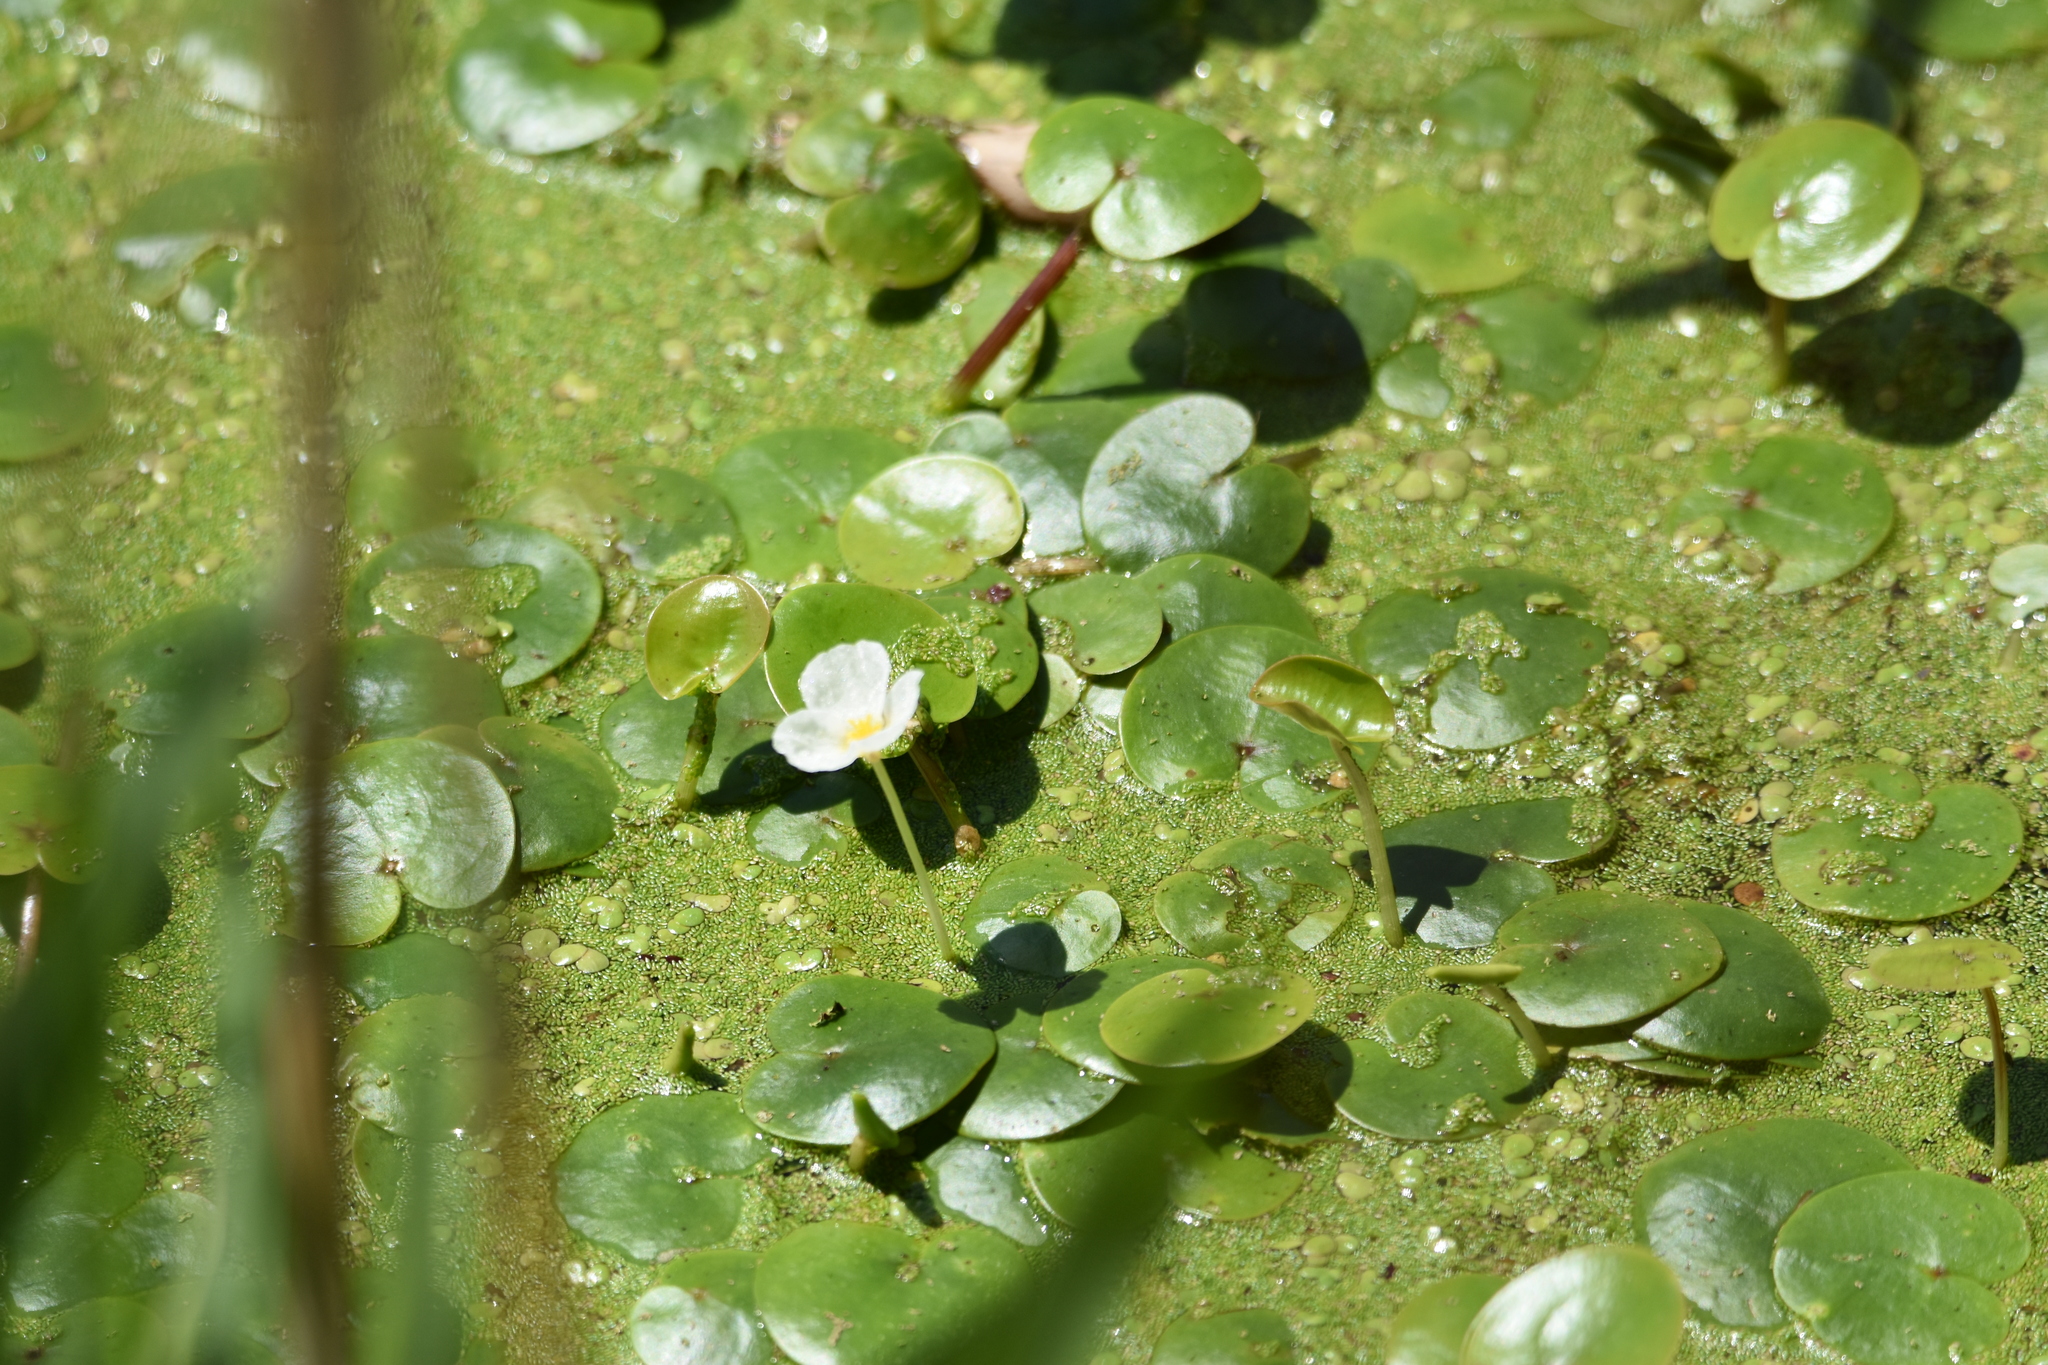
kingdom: Plantae
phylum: Tracheophyta
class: Liliopsida
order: Alismatales
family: Hydrocharitaceae
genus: Hydrocharis
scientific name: Hydrocharis morsus-ranae
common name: Frogbit
